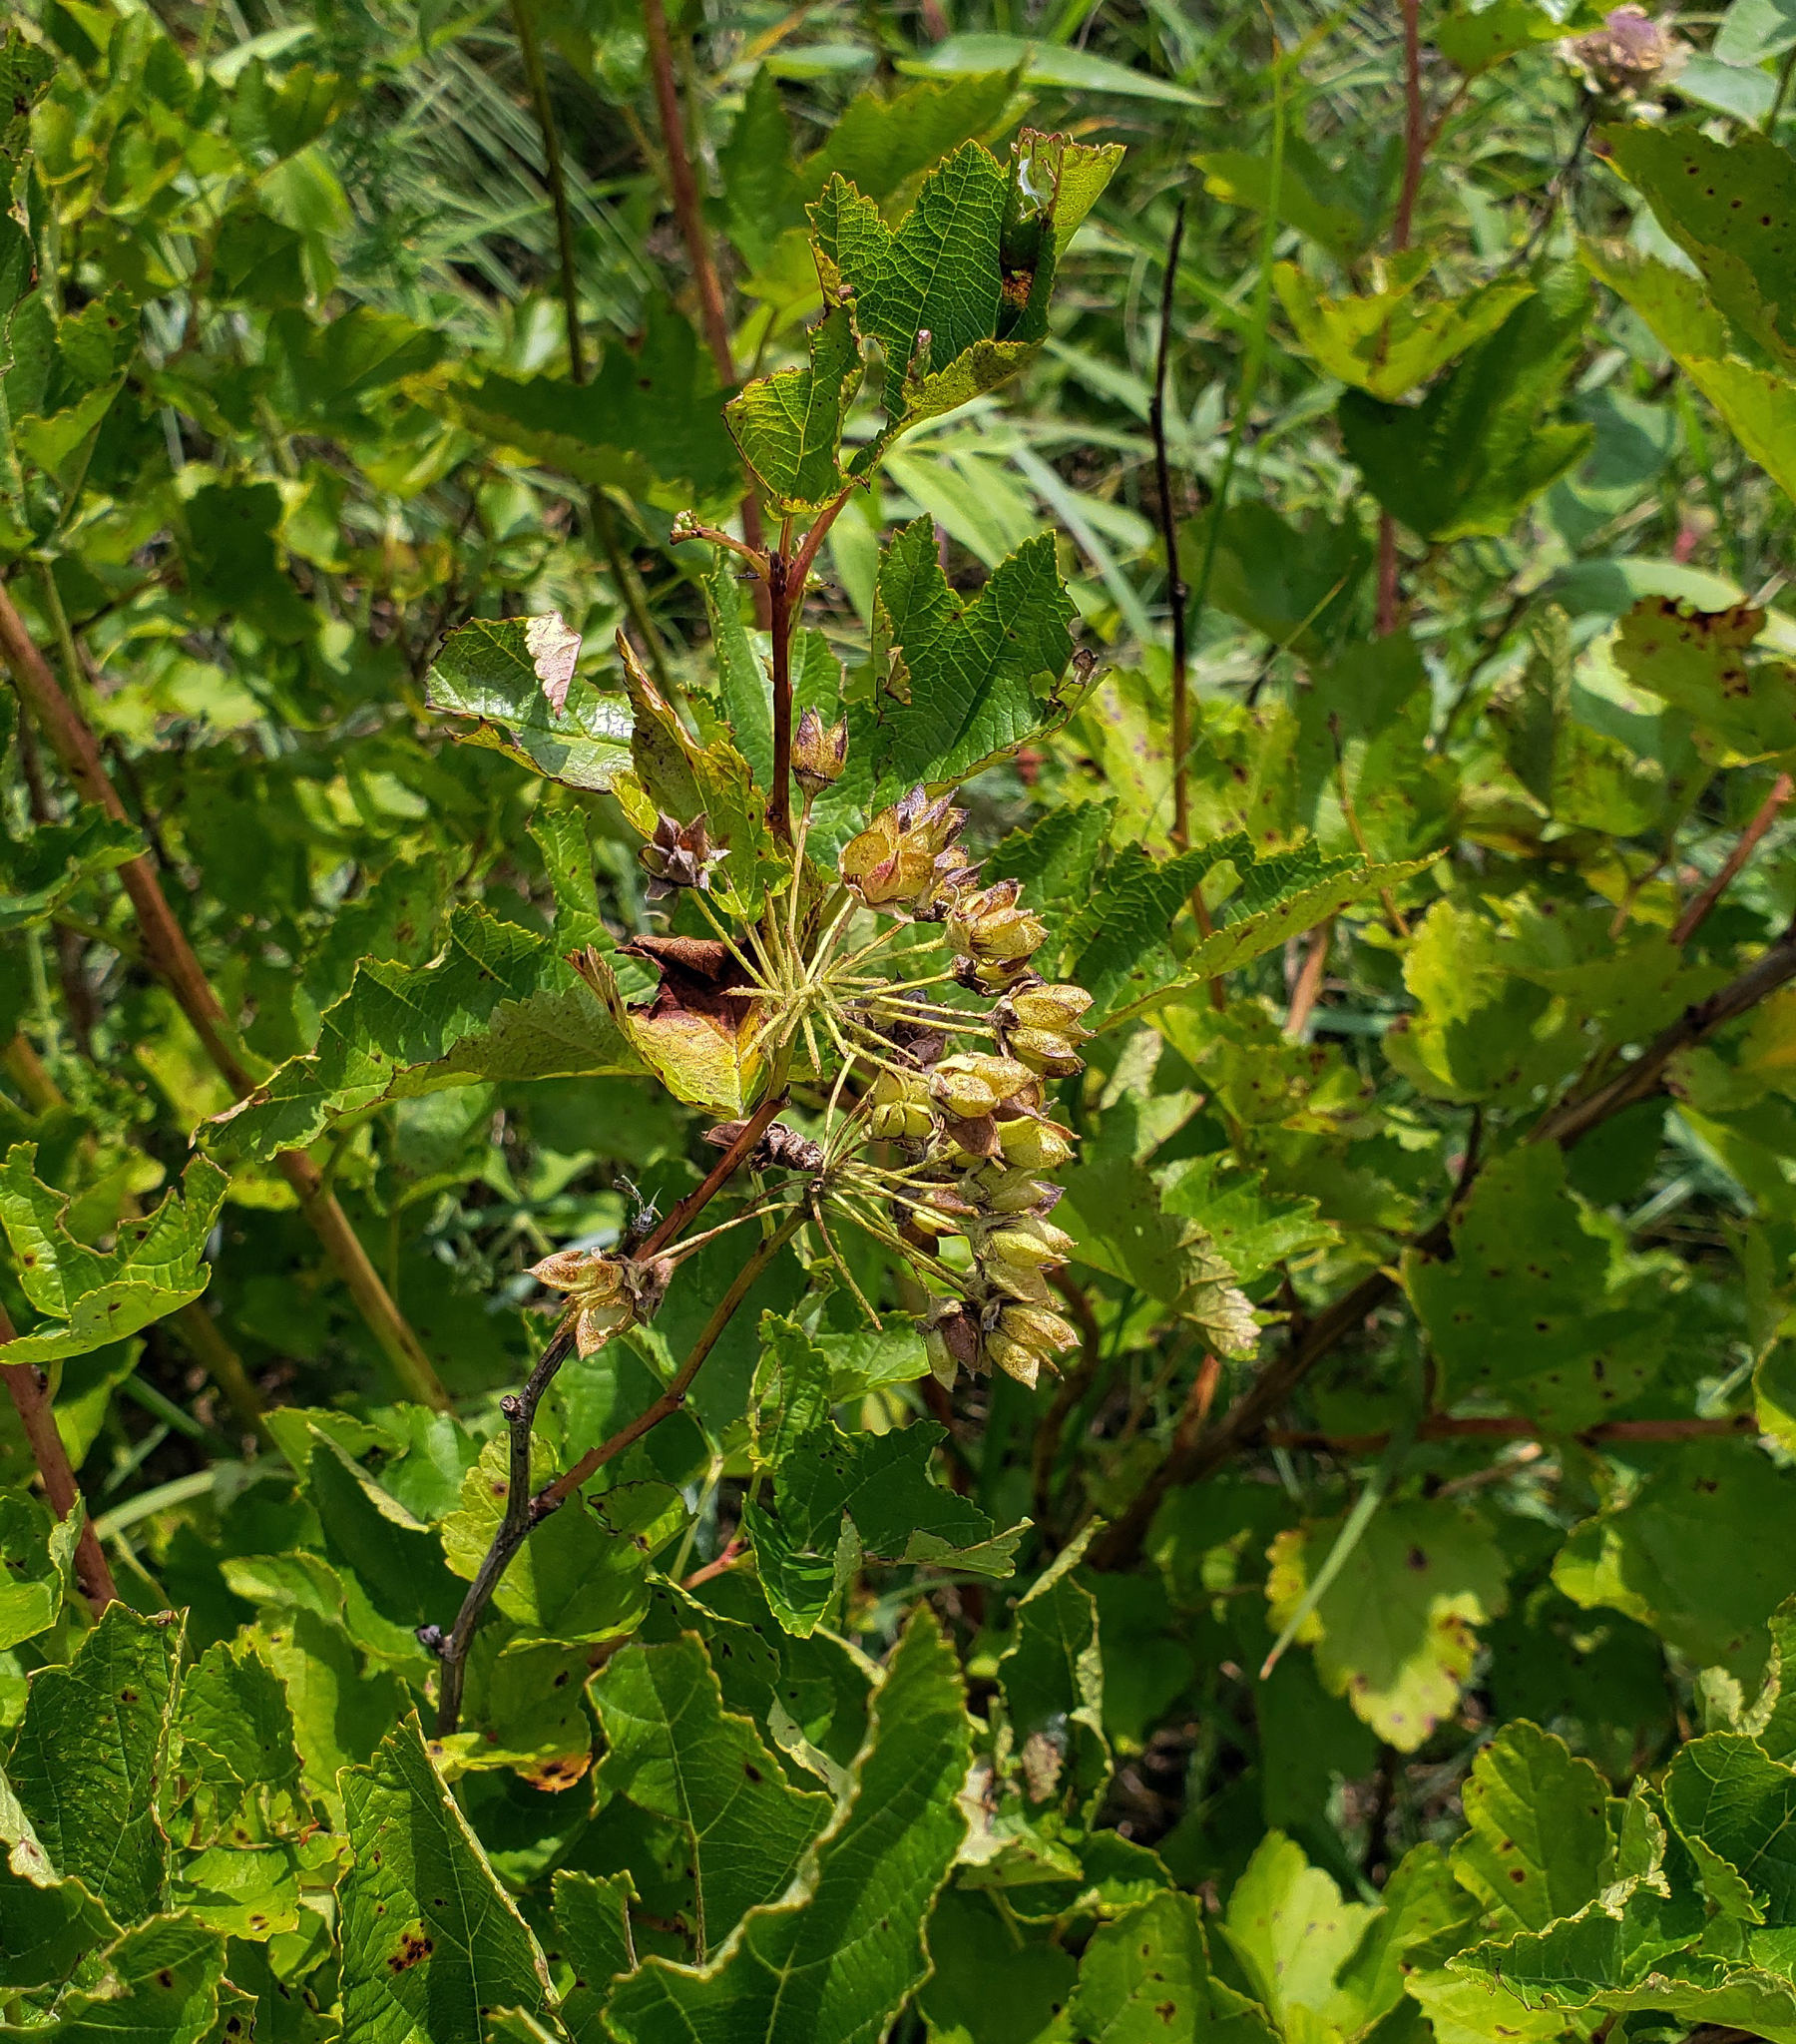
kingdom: Plantae
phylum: Tracheophyta
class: Magnoliopsida
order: Rosales
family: Rosaceae
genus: Physocarpus
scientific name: Physocarpus opulifolius
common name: Ninebark
